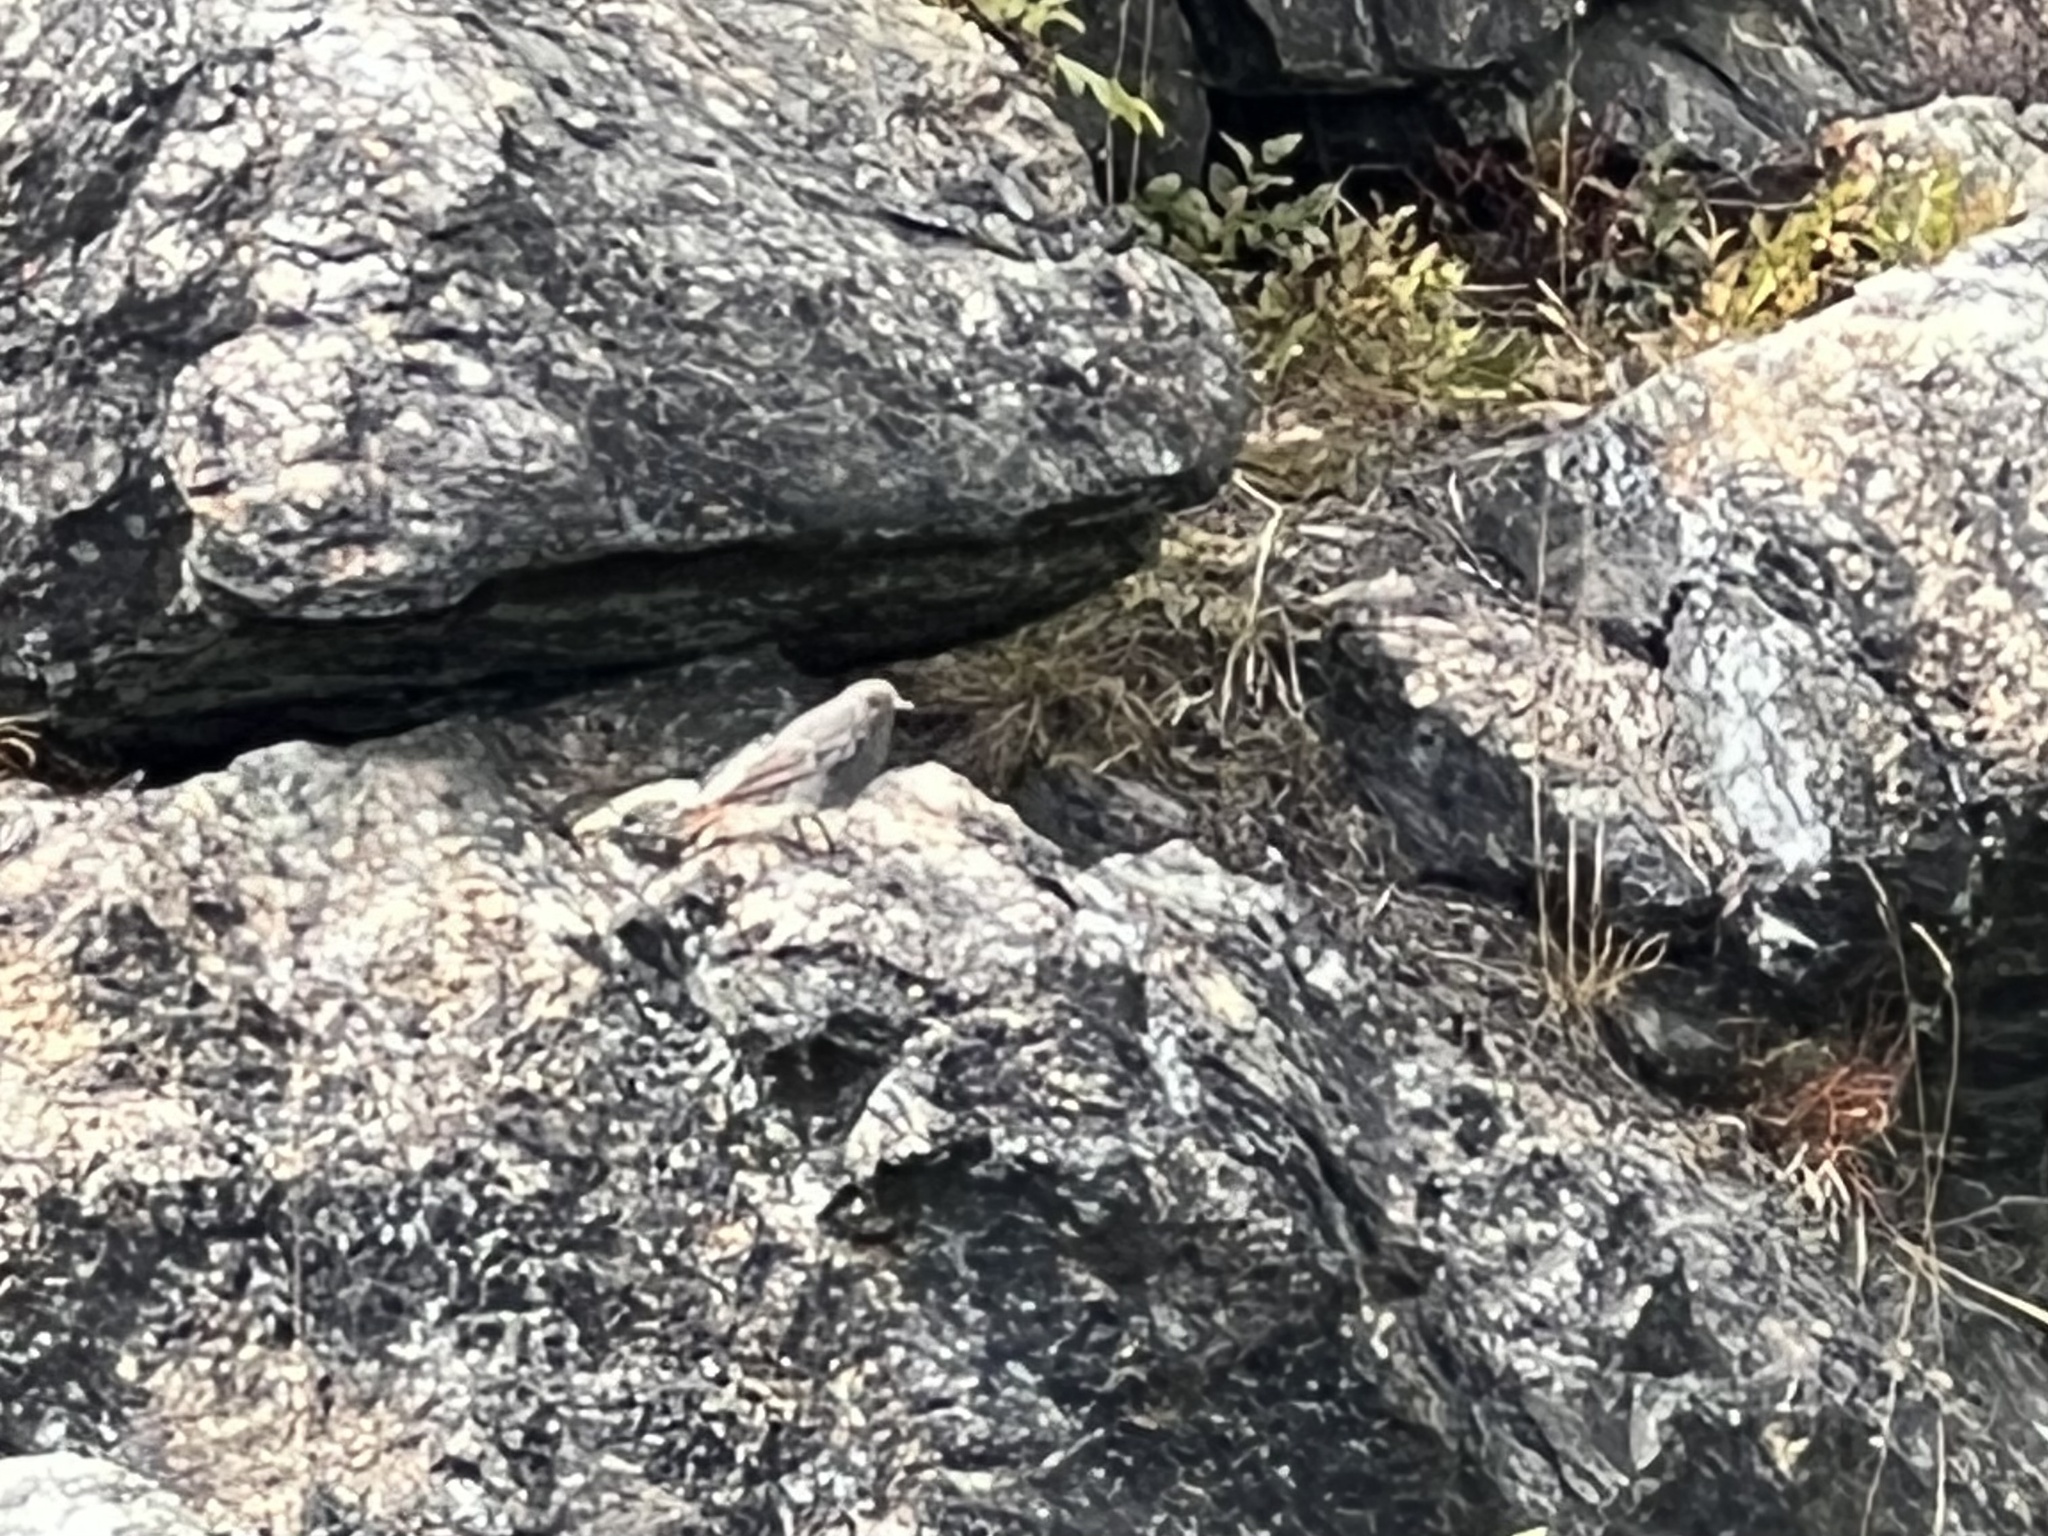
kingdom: Animalia
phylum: Chordata
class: Aves
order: Passeriformes
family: Muscicapidae
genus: Phoenicurus
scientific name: Phoenicurus ochruros
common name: Black redstart
